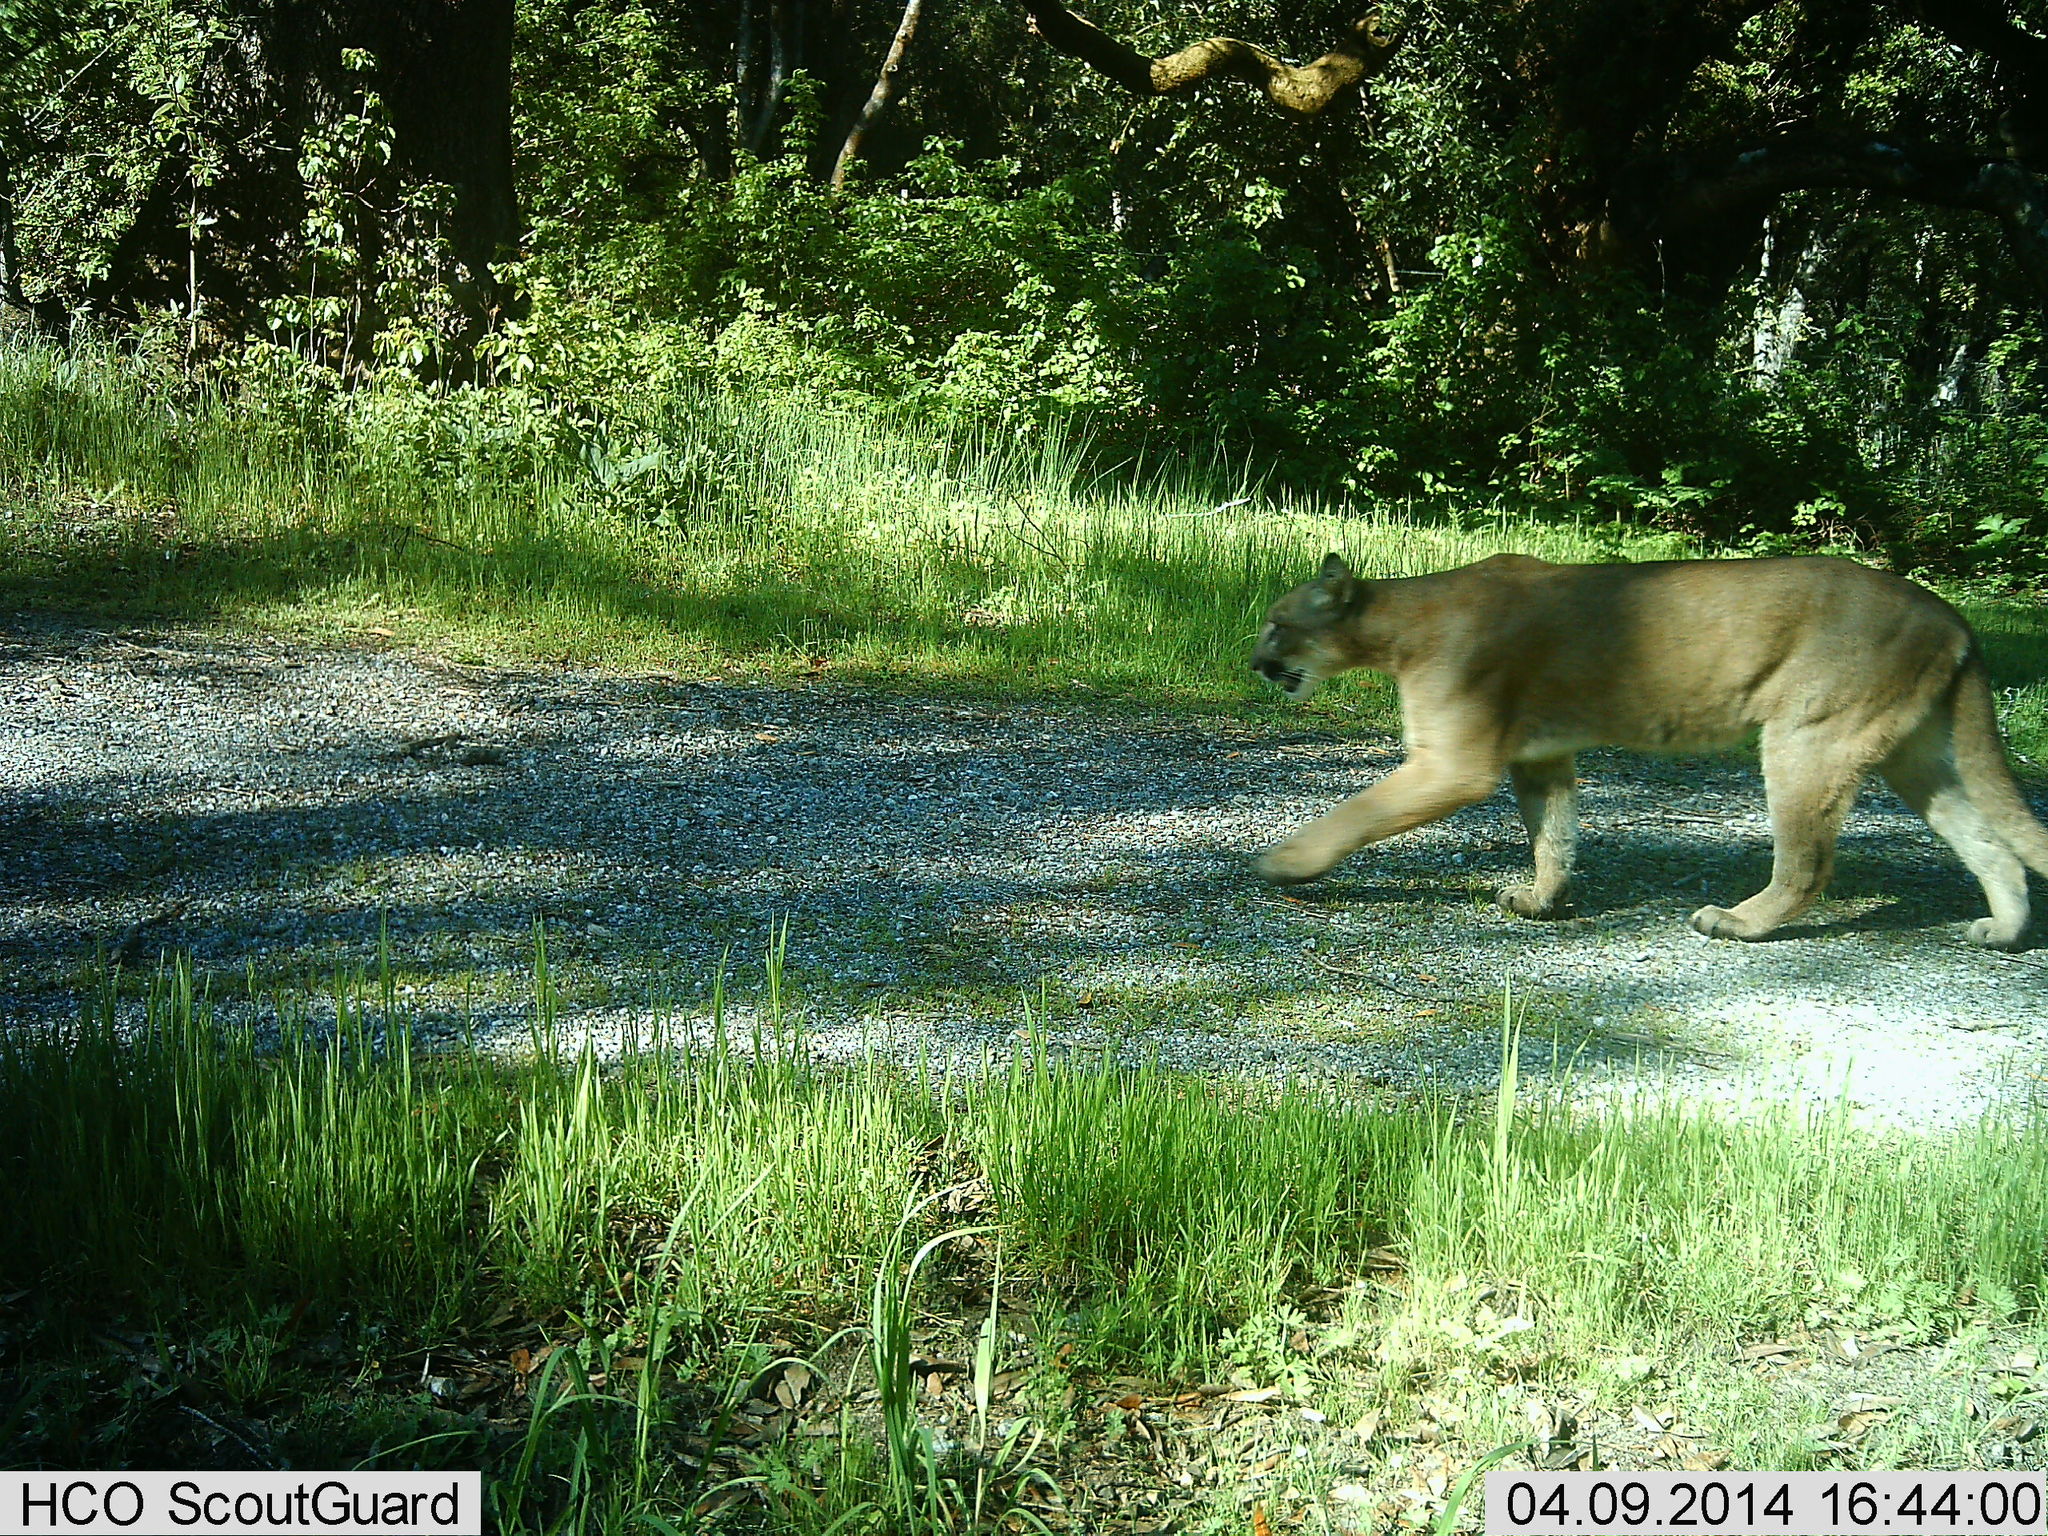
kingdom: Animalia
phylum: Chordata
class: Mammalia
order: Carnivora
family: Felidae
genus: Puma
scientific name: Puma concolor
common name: Puma
